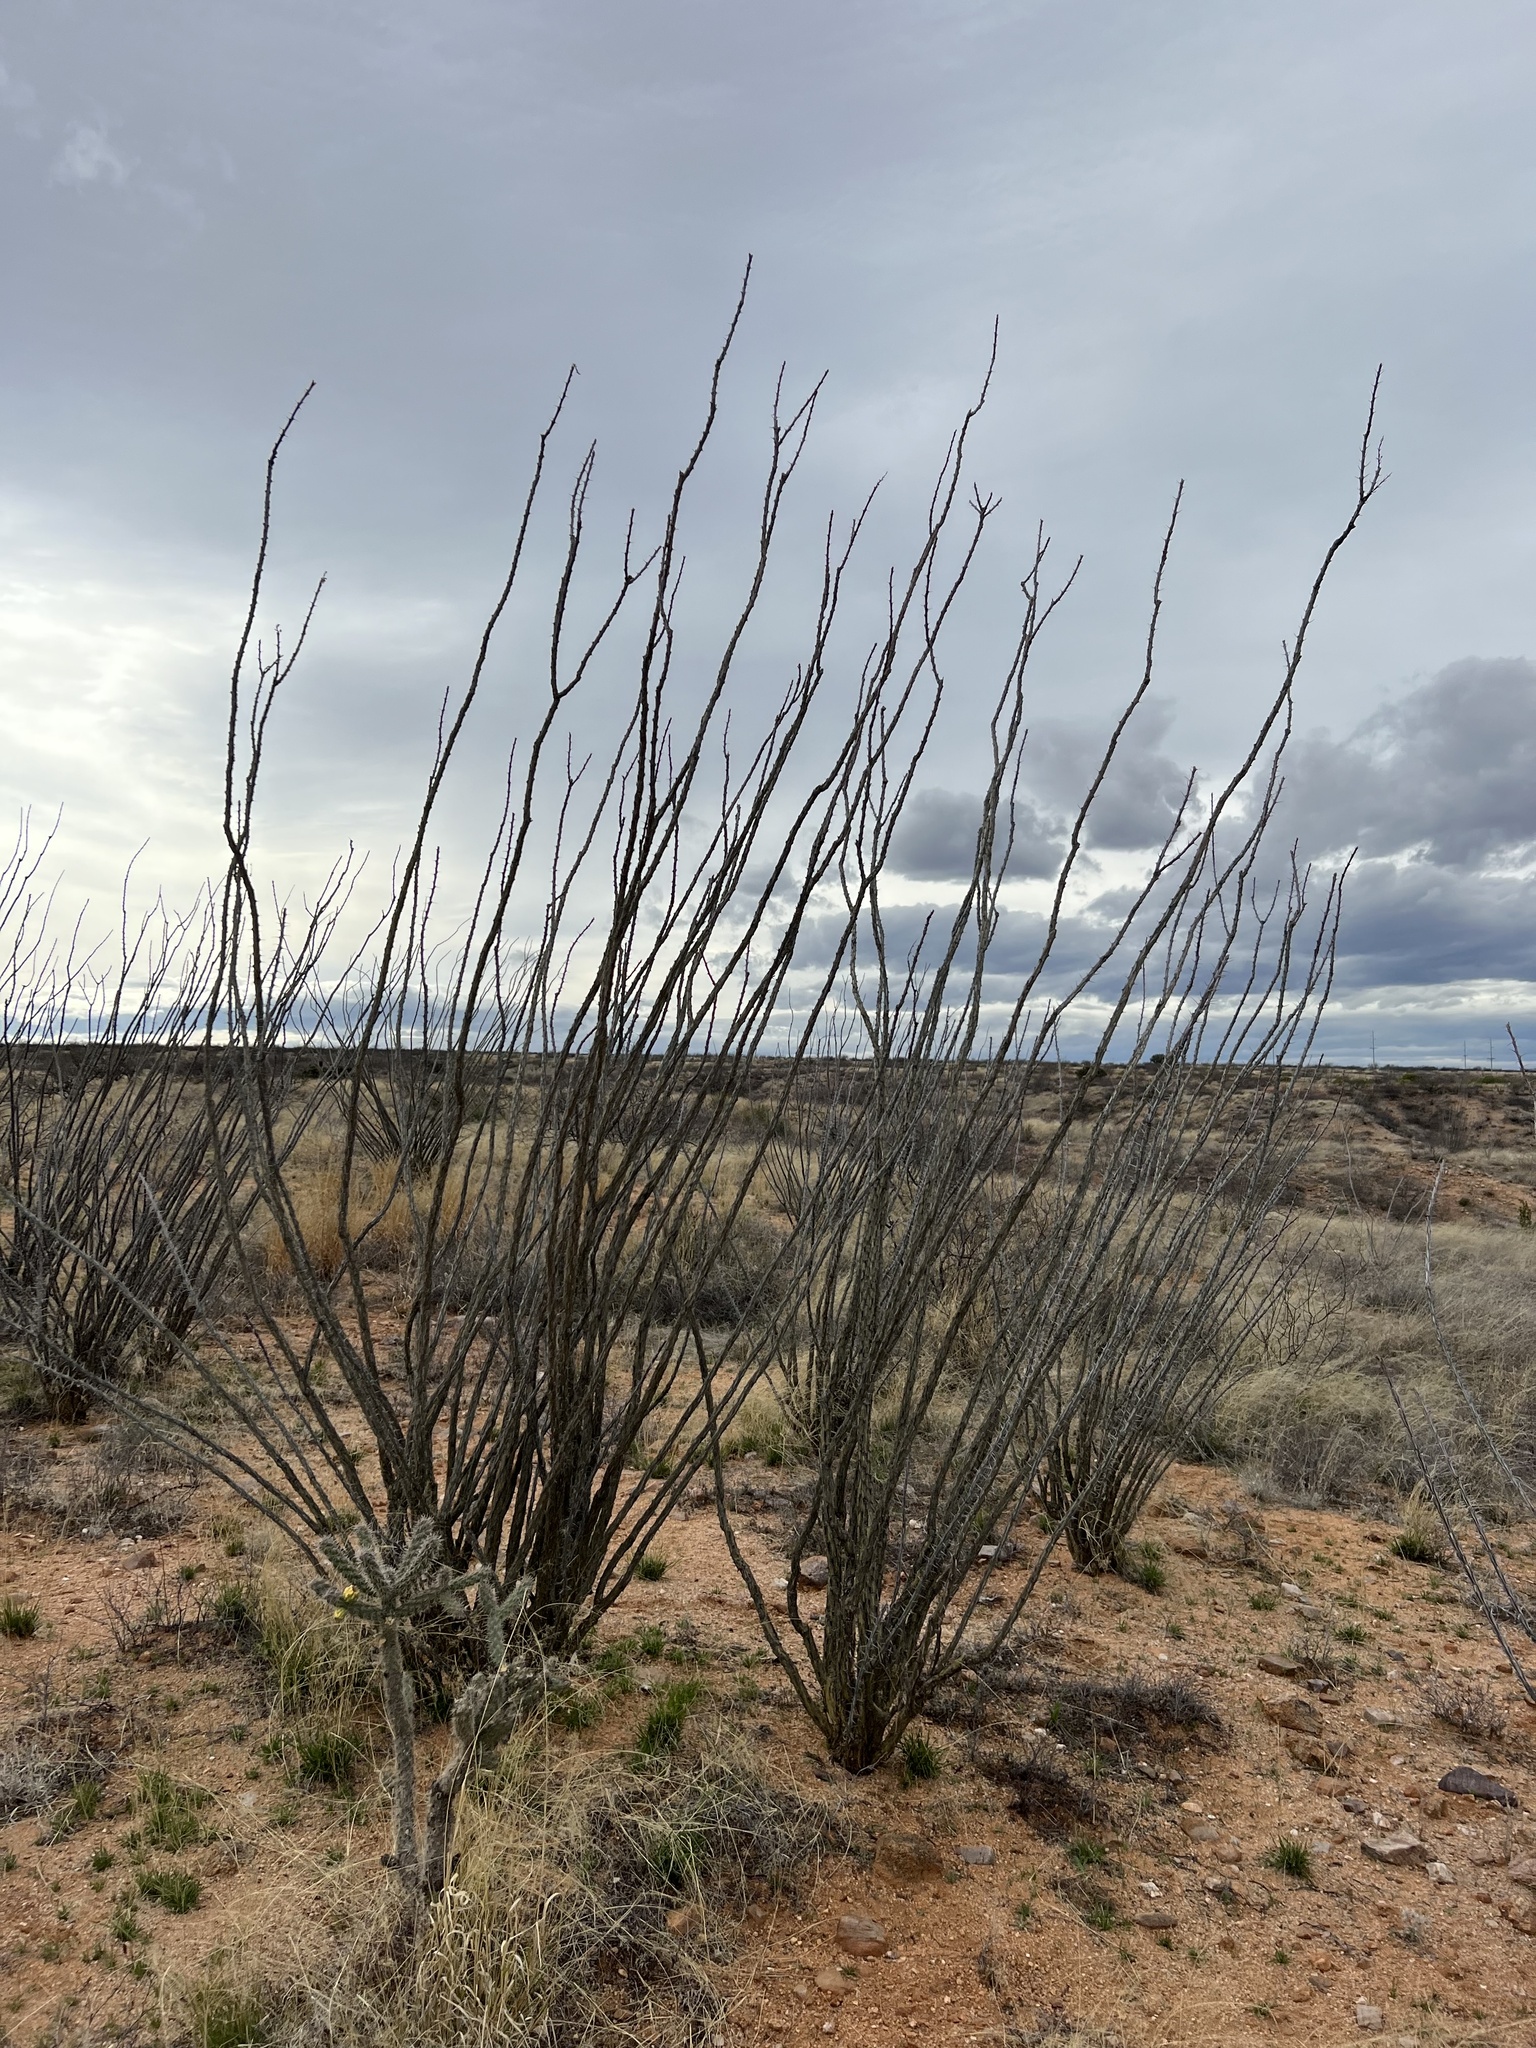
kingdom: Plantae
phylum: Tracheophyta
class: Magnoliopsida
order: Ericales
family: Fouquieriaceae
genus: Fouquieria
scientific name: Fouquieria splendens
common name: Vine-cactus
